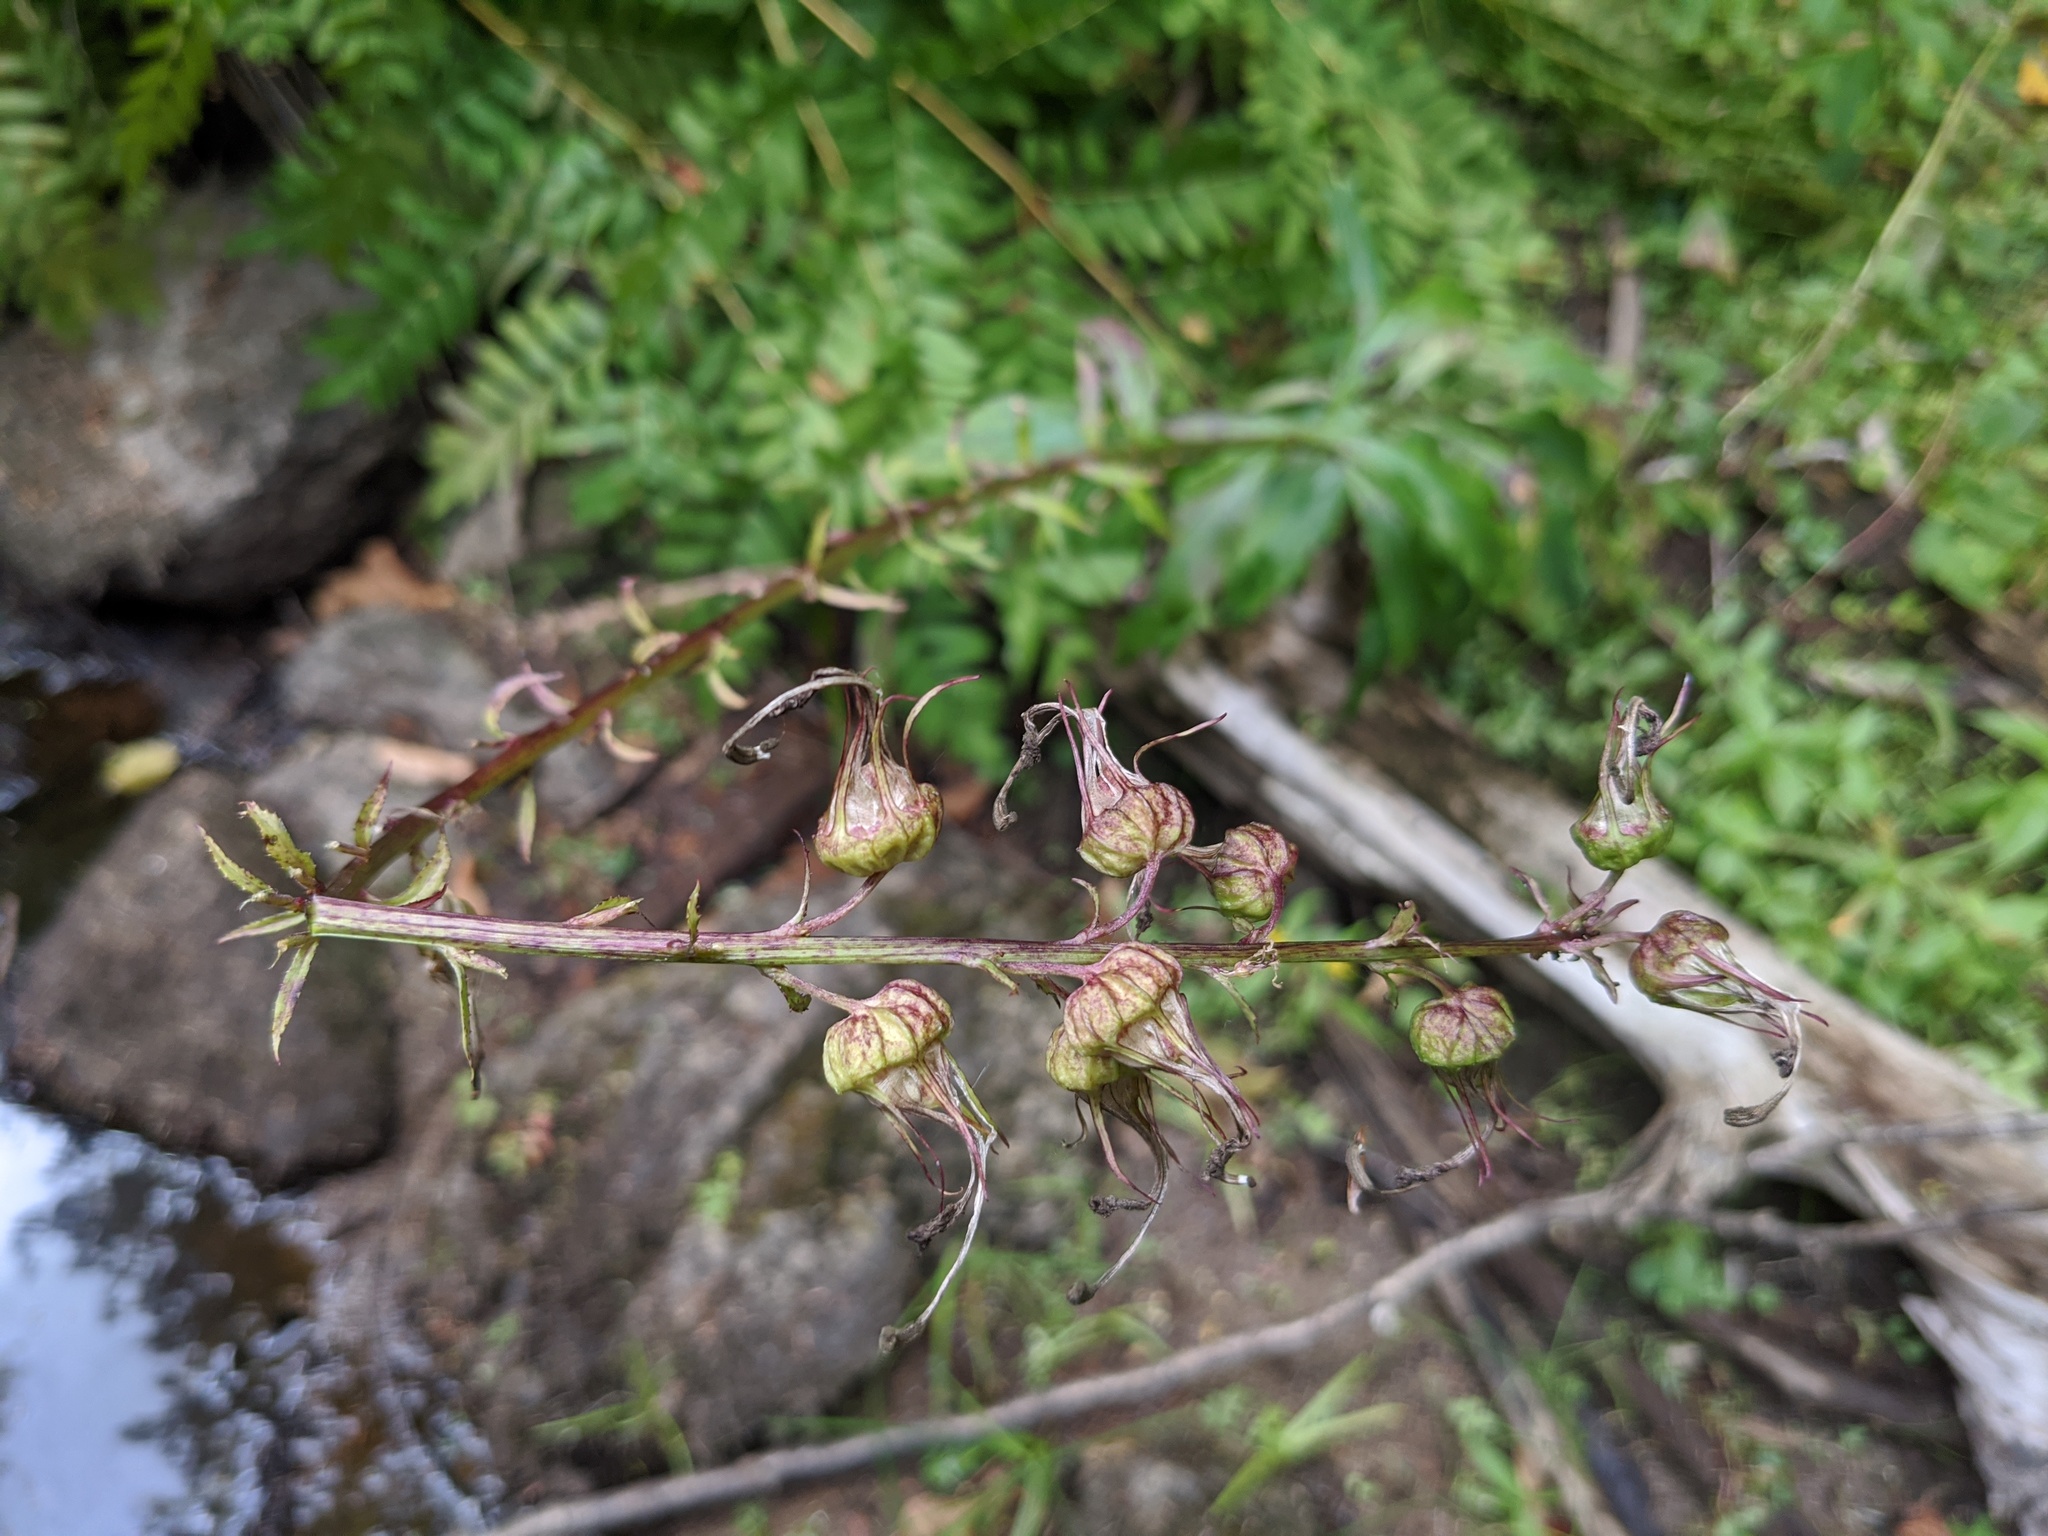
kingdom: Plantae
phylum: Tracheophyta
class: Magnoliopsida
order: Asterales
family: Campanulaceae
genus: Lobelia
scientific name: Lobelia cardinalis
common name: Cardinal flower
